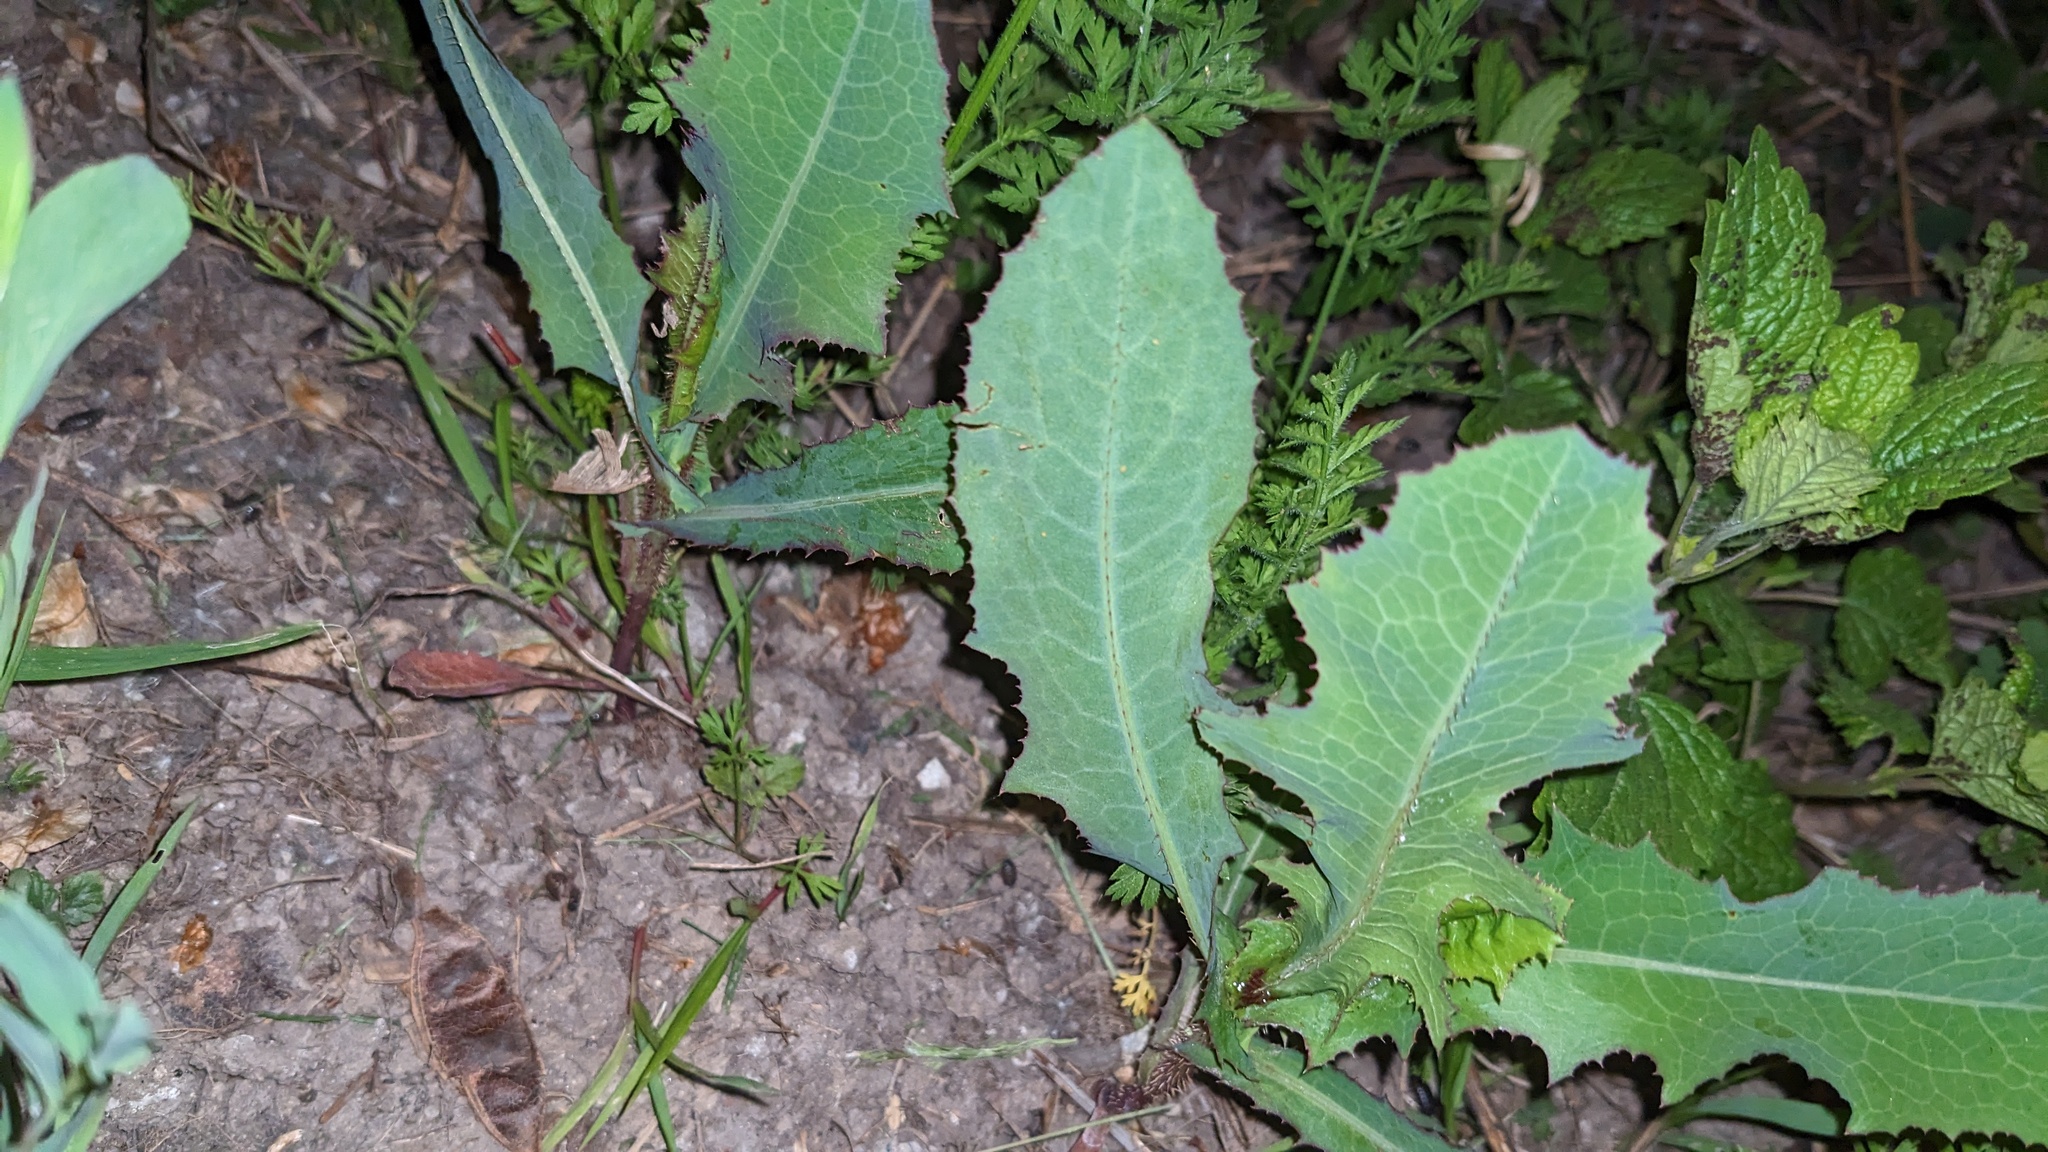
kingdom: Plantae
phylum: Tracheophyta
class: Magnoliopsida
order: Asterales
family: Asteraceae
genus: Lactuca
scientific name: Lactuca serriola
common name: Prickly lettuce
